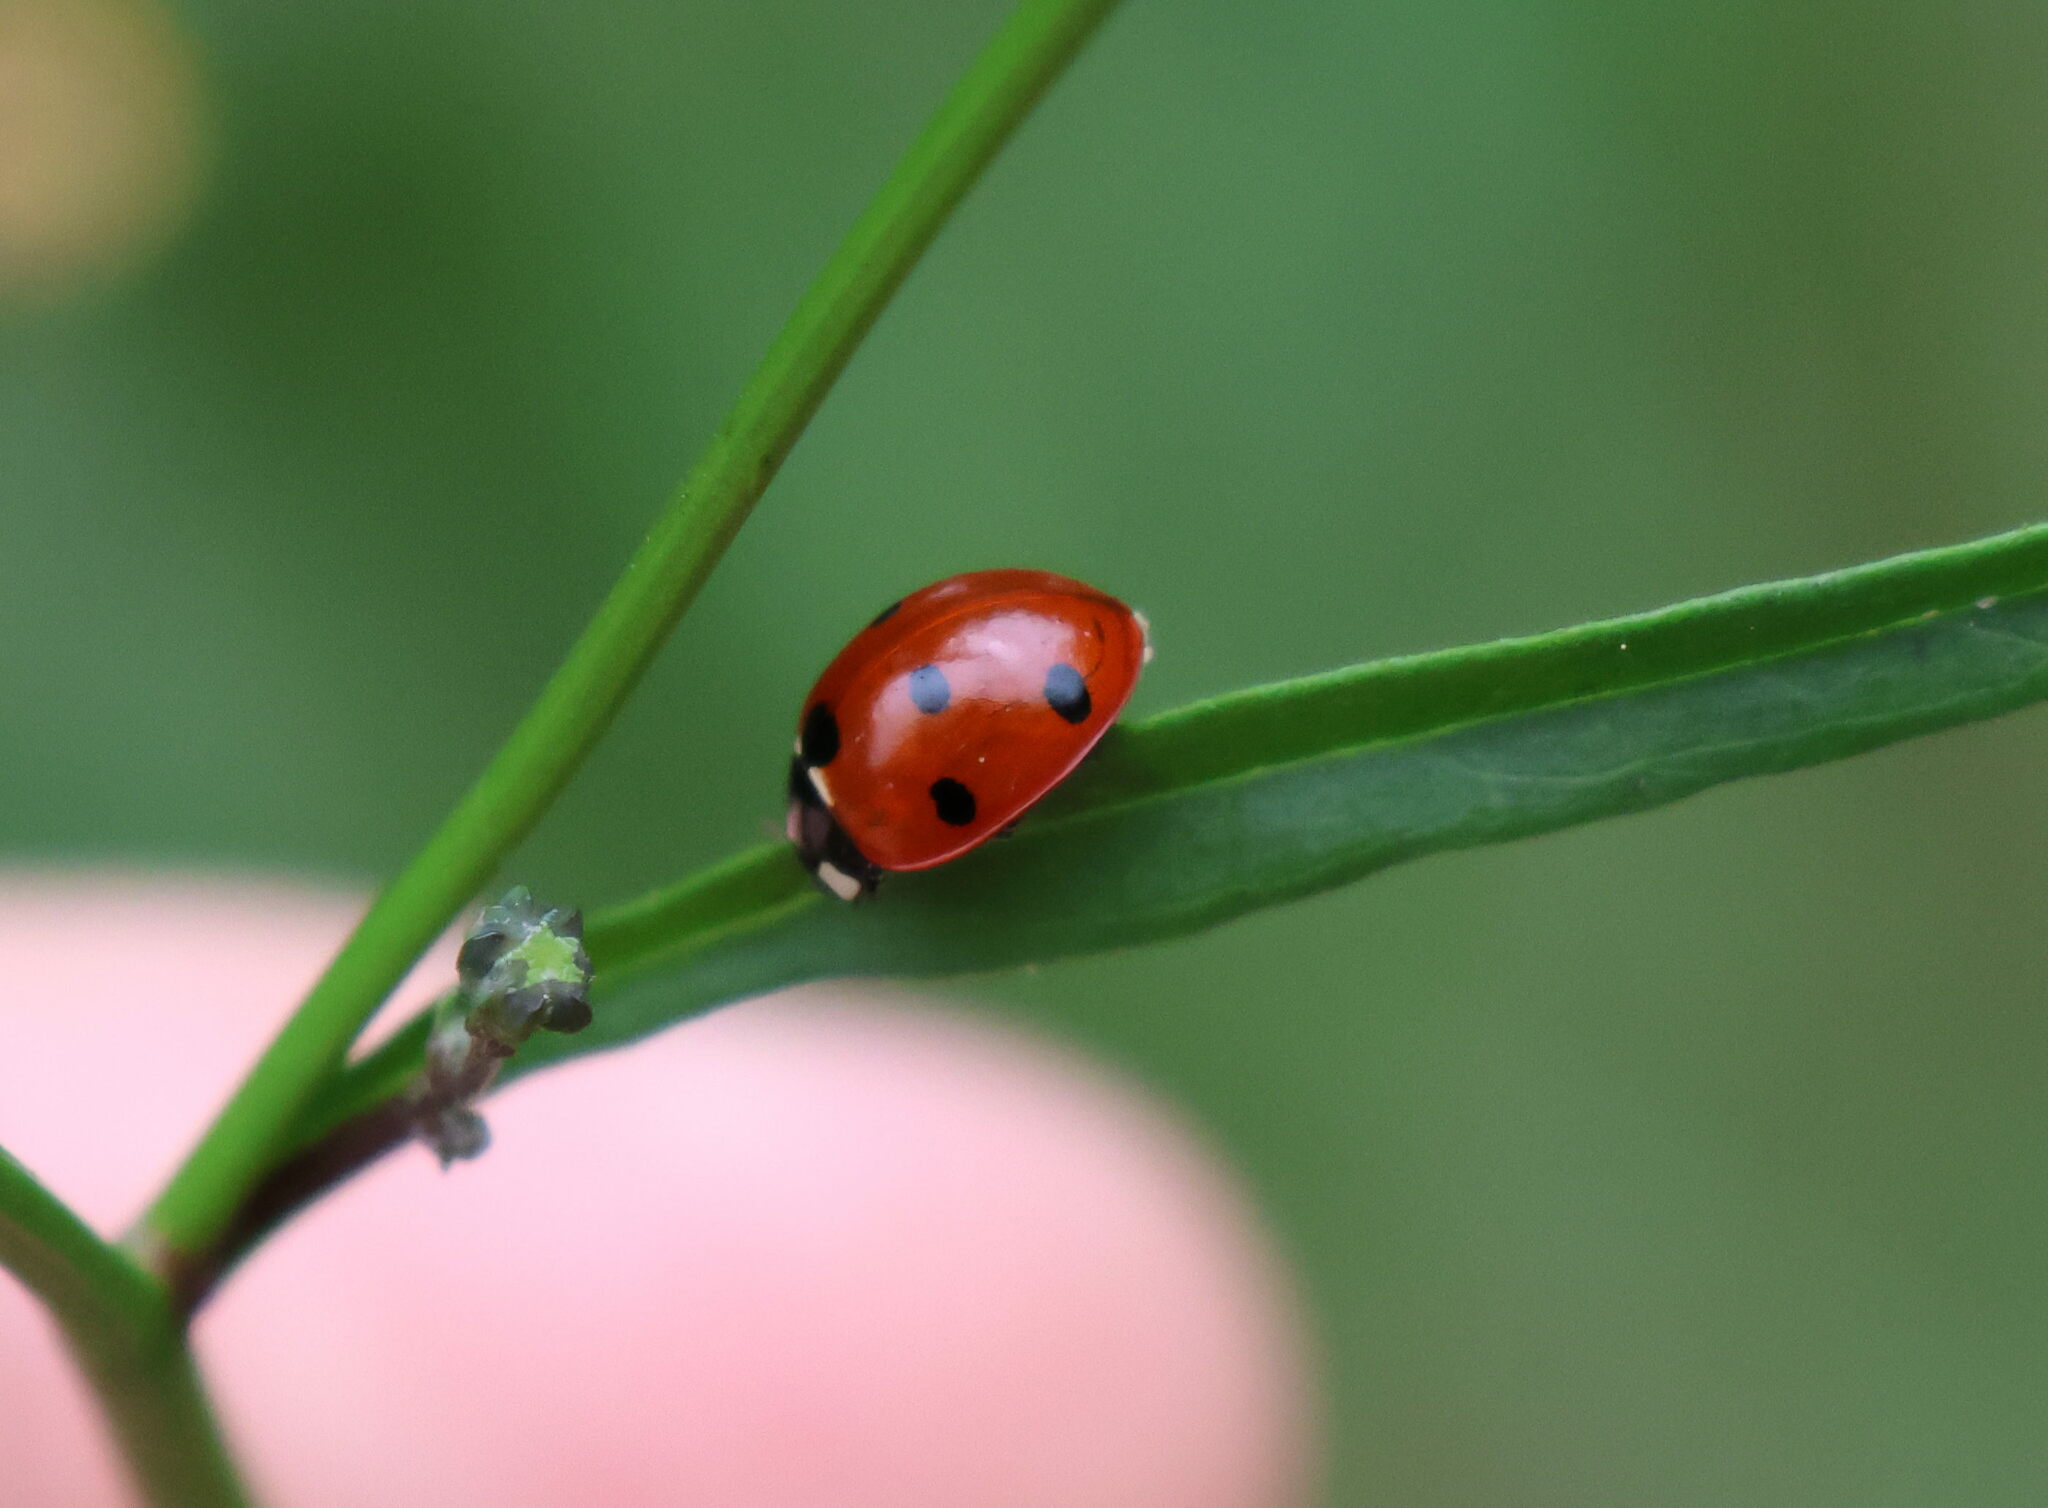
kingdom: Animalia
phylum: Arthropoda
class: Insecta
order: Coleoptera
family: Coccinellidae
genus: Coccinella
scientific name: Coccinella septempunctata
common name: Sevenspotted lady beetle
